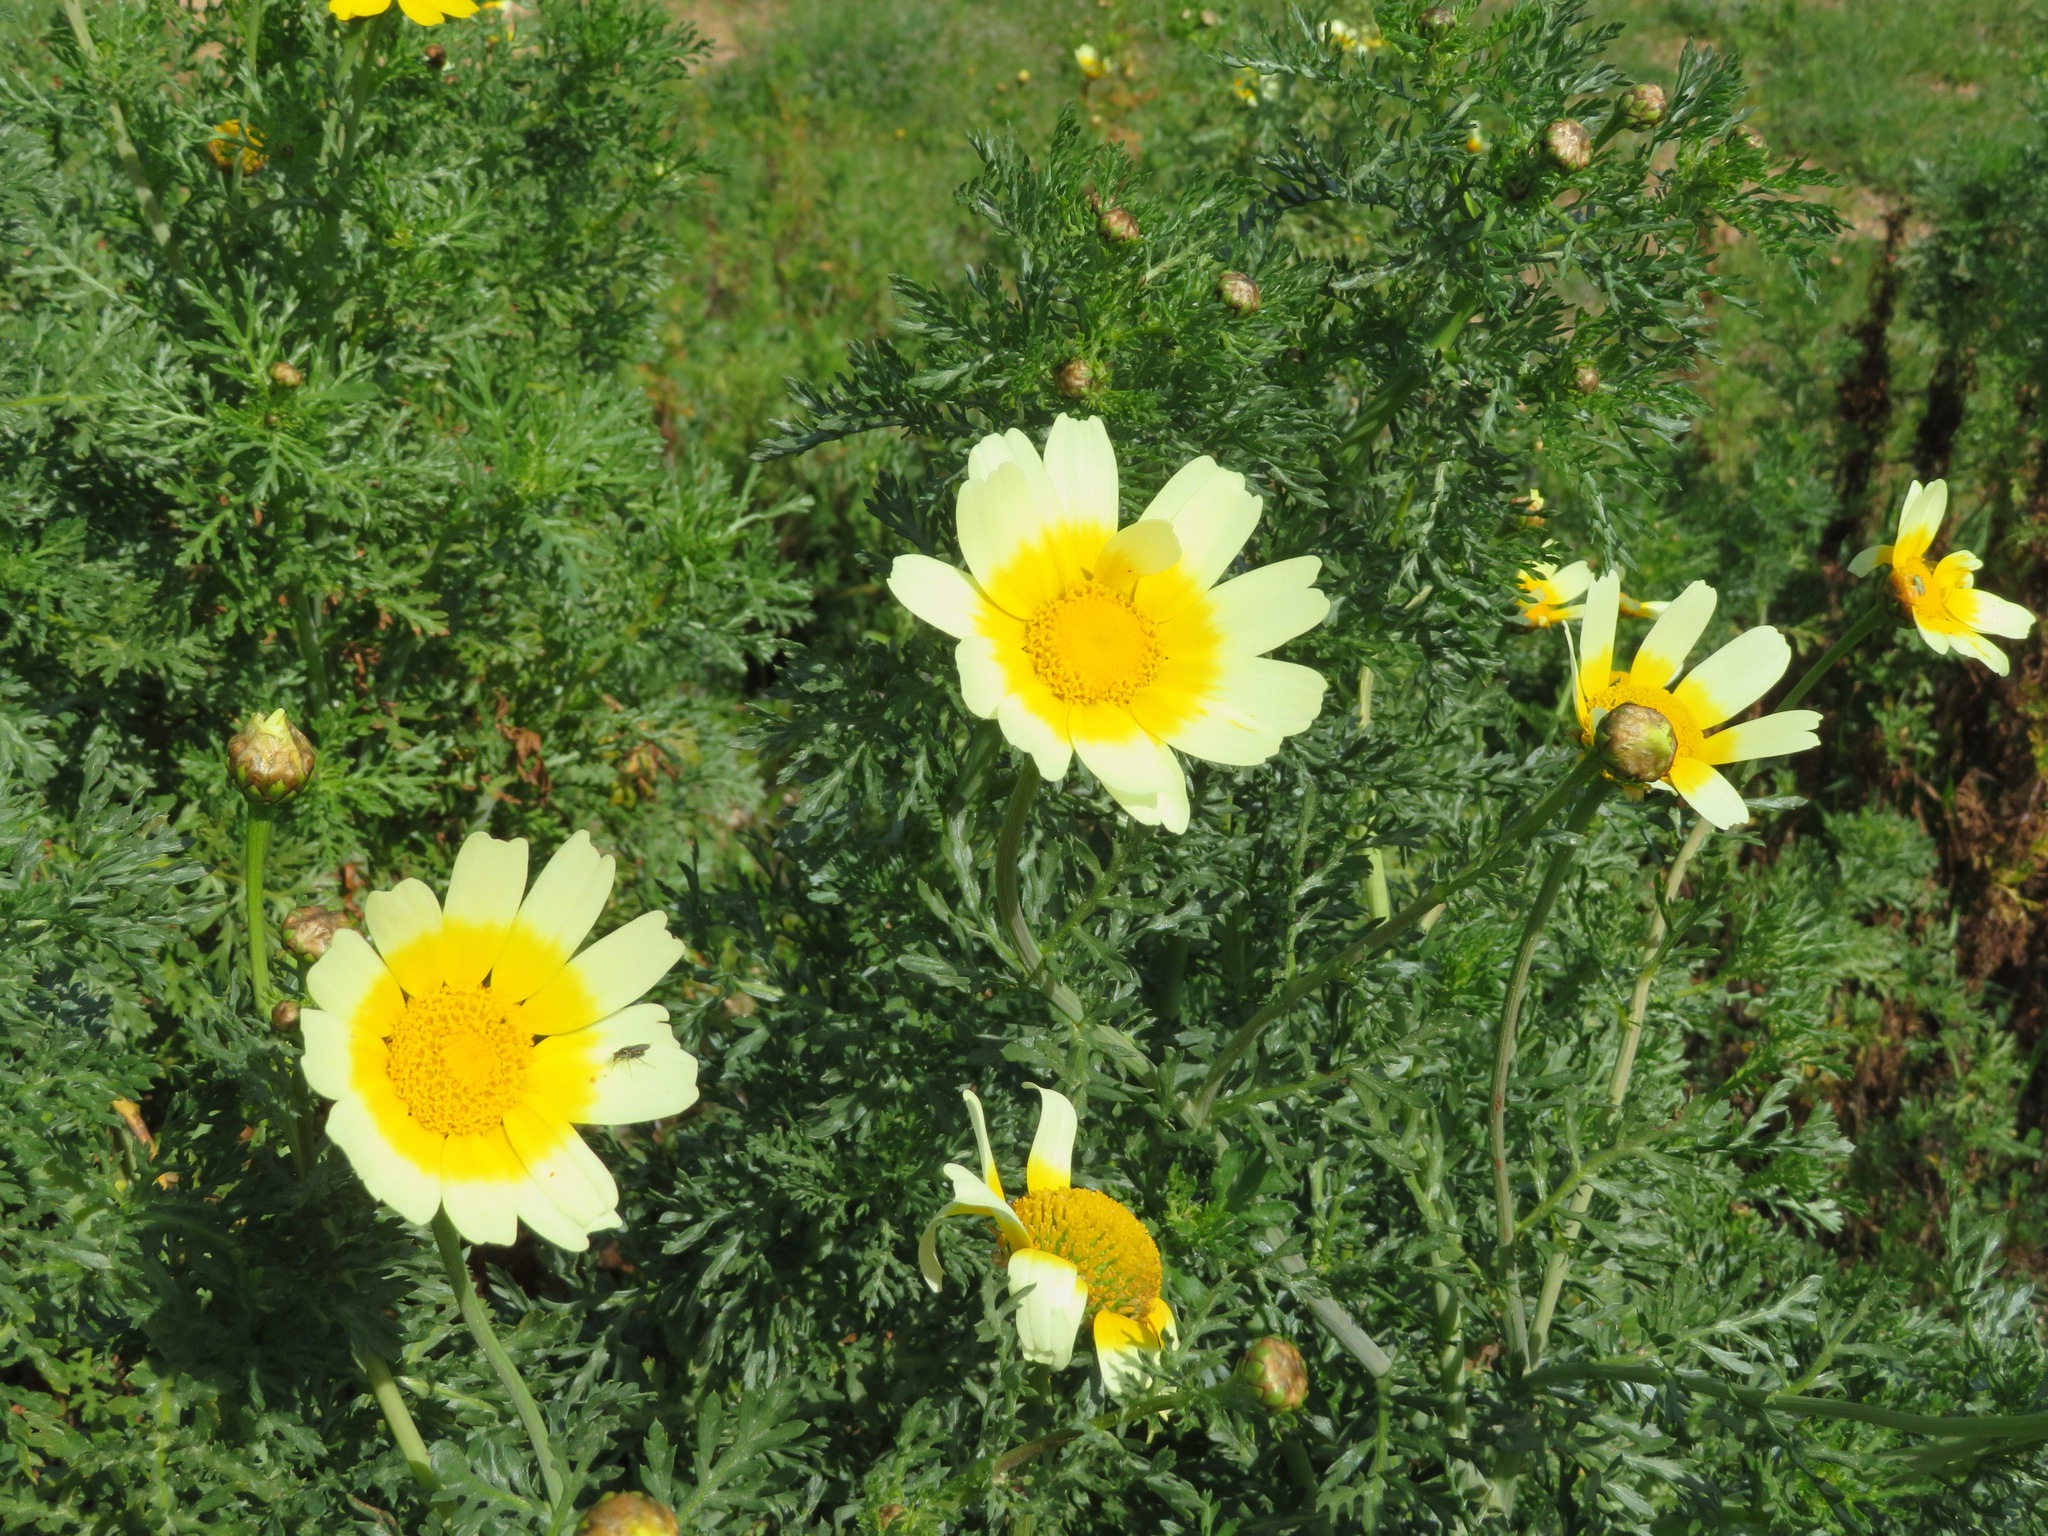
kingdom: Plantae
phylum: Tracheophyta
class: Magnoliopsida
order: Asterales
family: Asteraceae
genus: Glebionis
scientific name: Glebionis coronaria
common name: Crowndaisy
